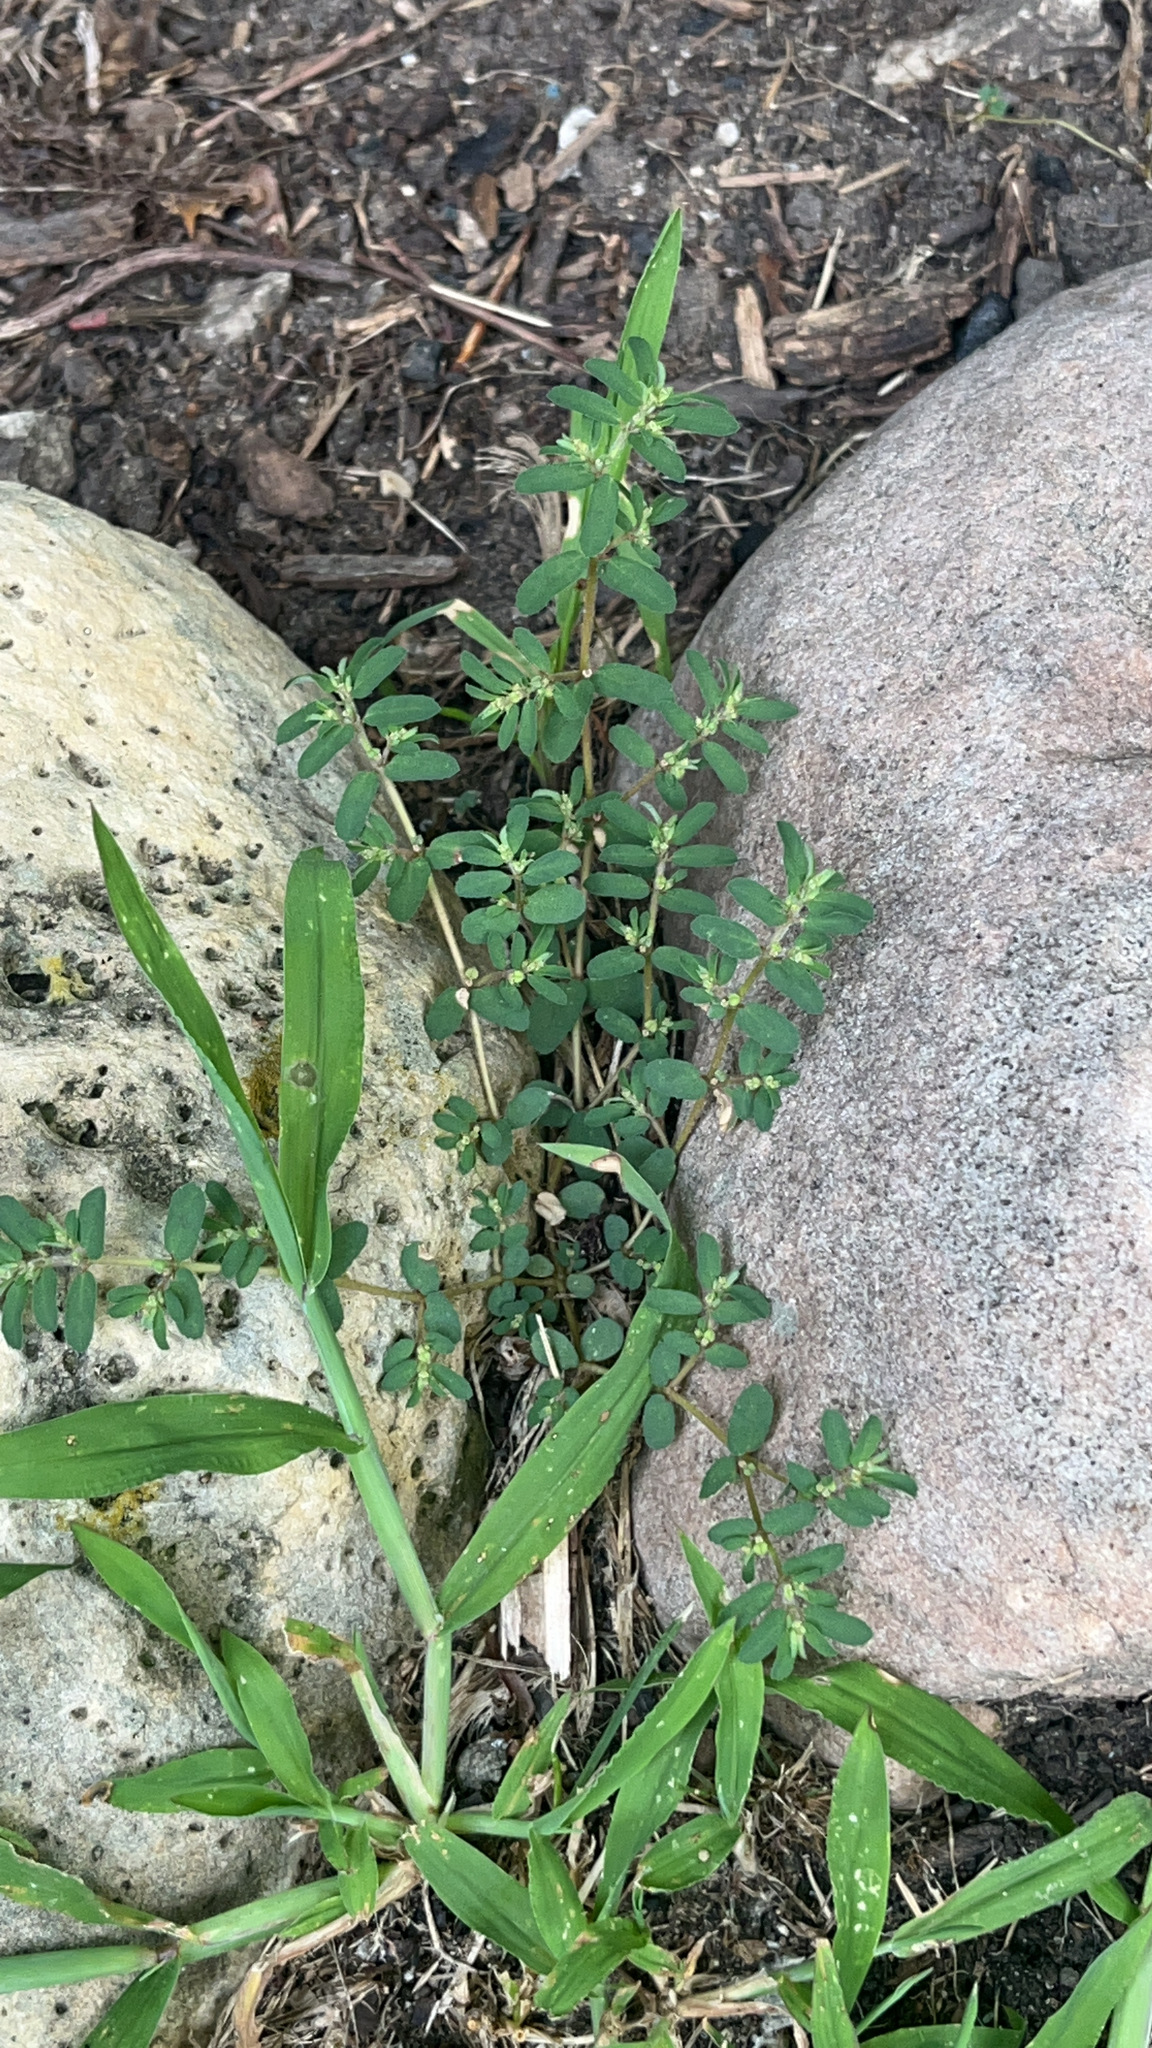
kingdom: Plantae
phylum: Tracheophyta
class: Magnoliopsida
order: Malpighiales
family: Euphorbiaceae
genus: Euphorbia
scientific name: Euphorbia maculata
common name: Spotted spurge
